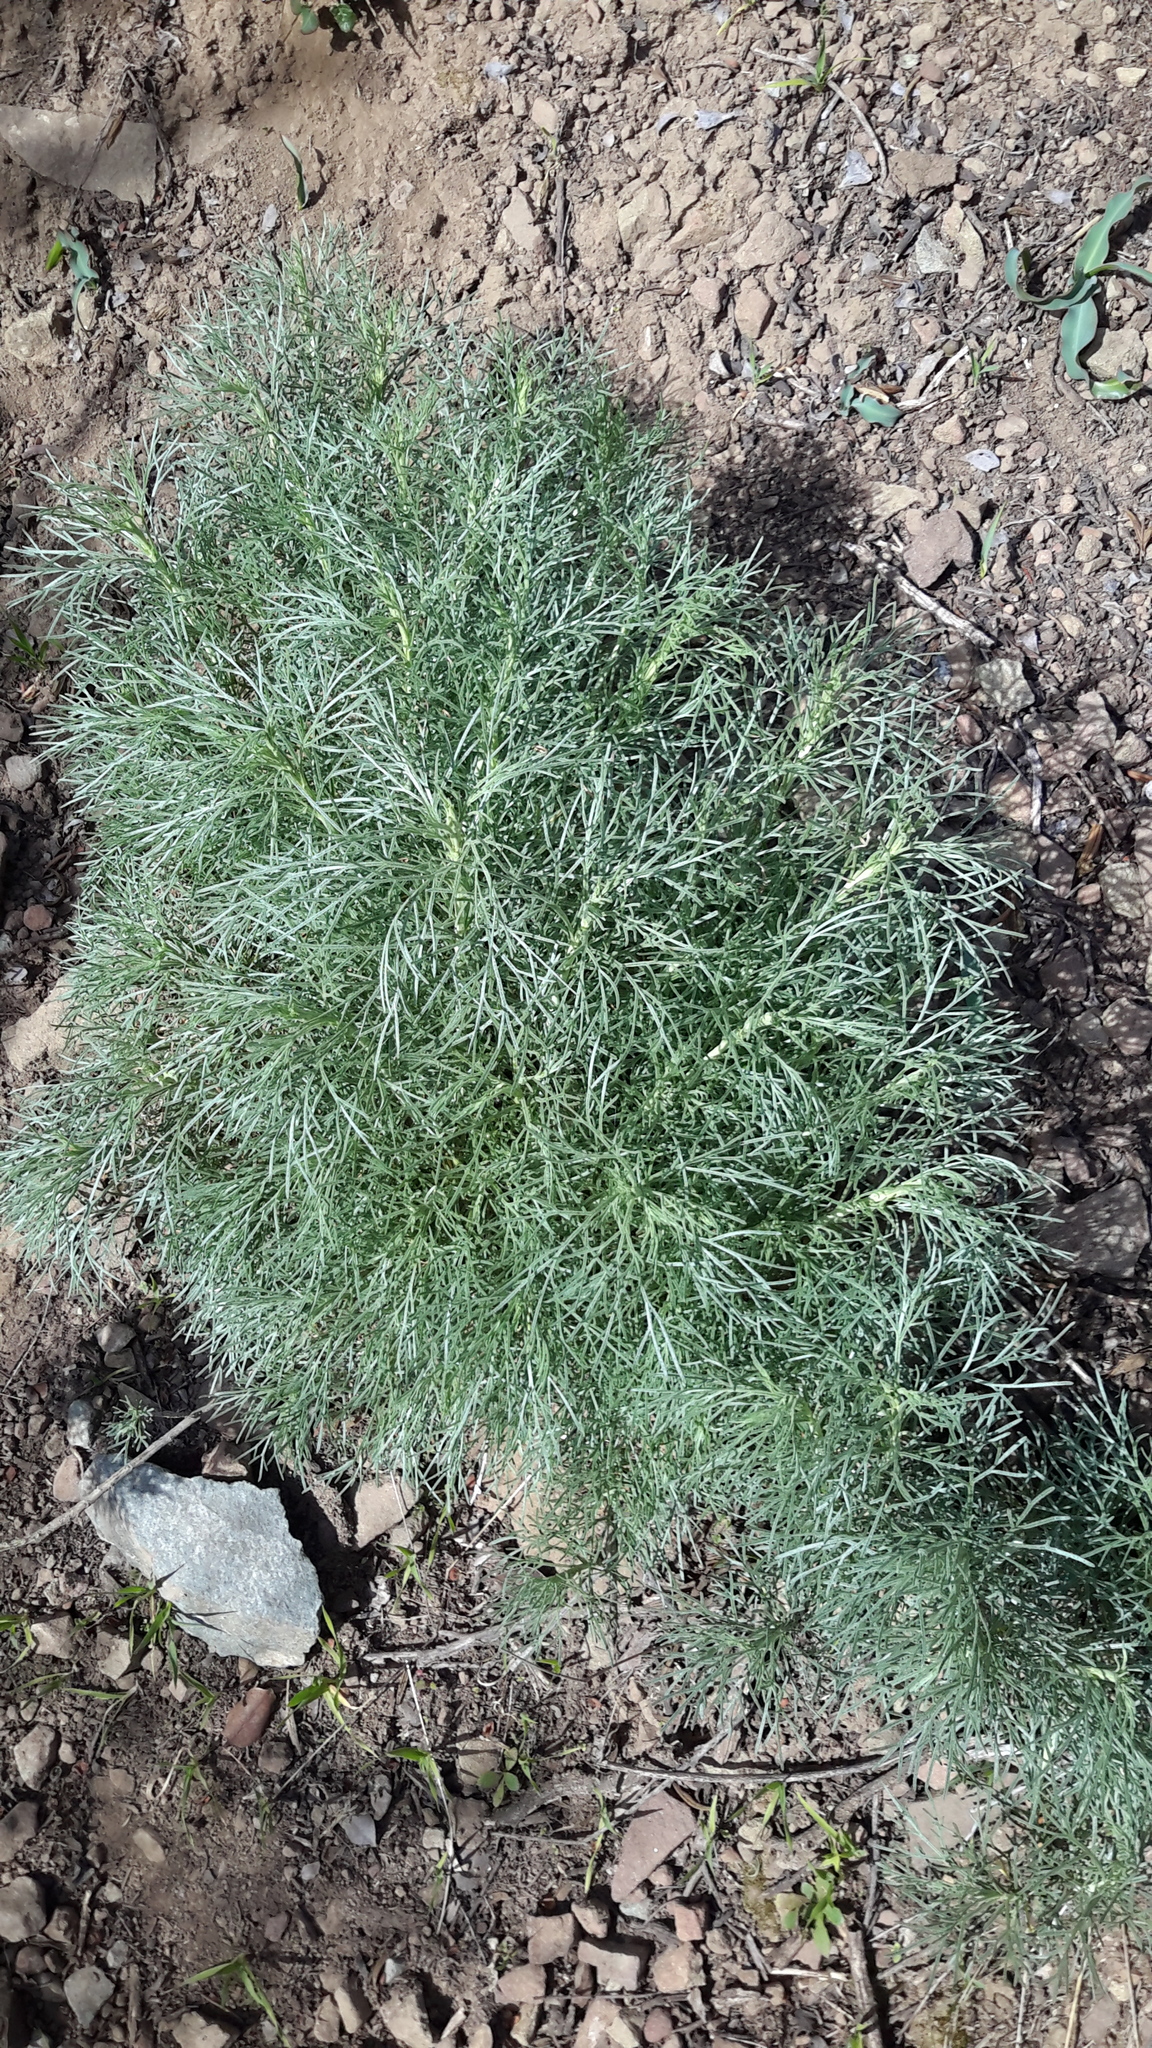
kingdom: Plantae
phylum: Tracheophyta
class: Magnoliopsida
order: Asterales
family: Asteraceae
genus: Artemisia
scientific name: Artemisia californica
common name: California sagebrush
